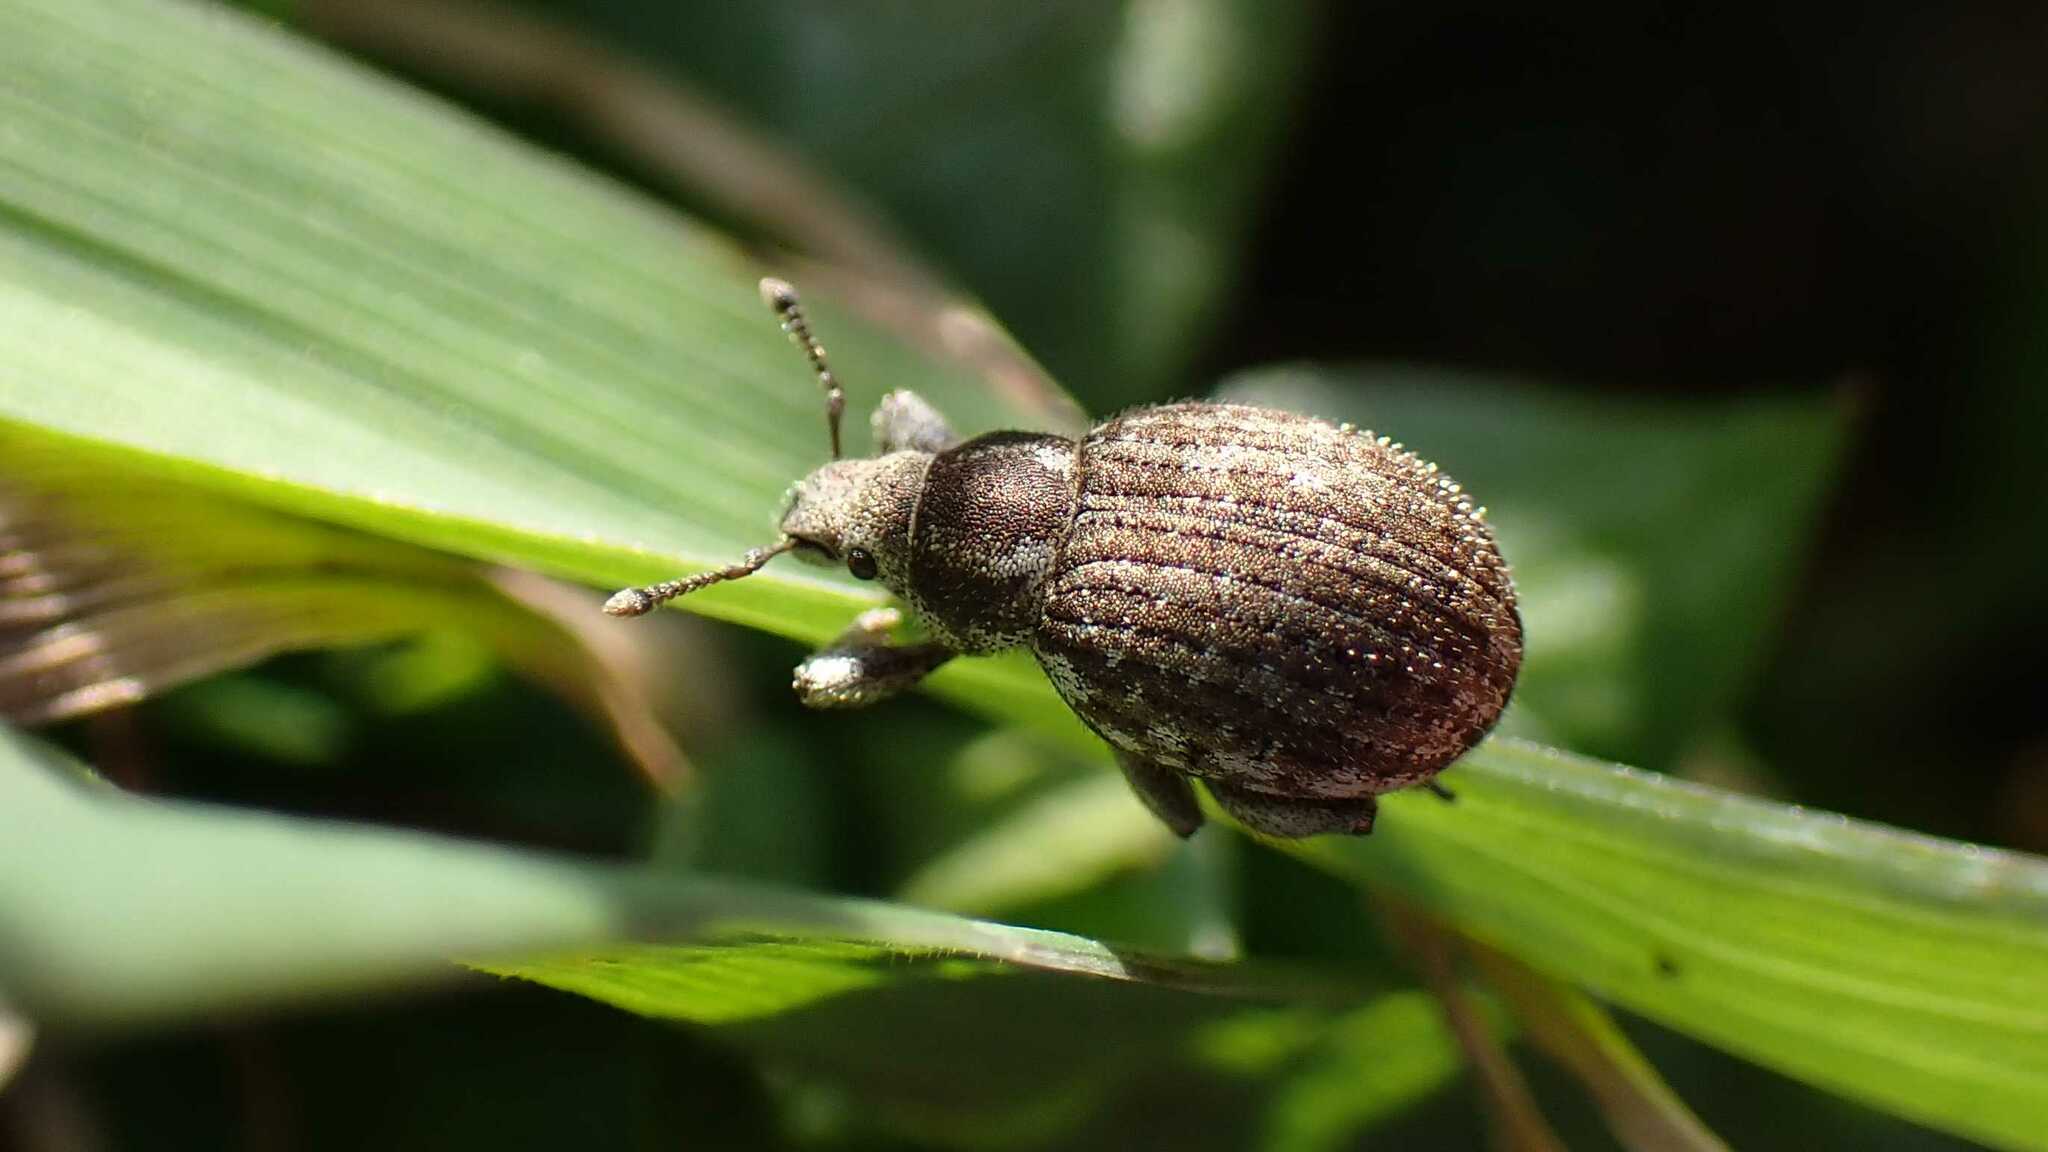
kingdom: Animalia
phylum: Arthropoda
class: Insecta
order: Coleoptera
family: Curculionidae
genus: Philopedon
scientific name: Philopedon plagiatum
